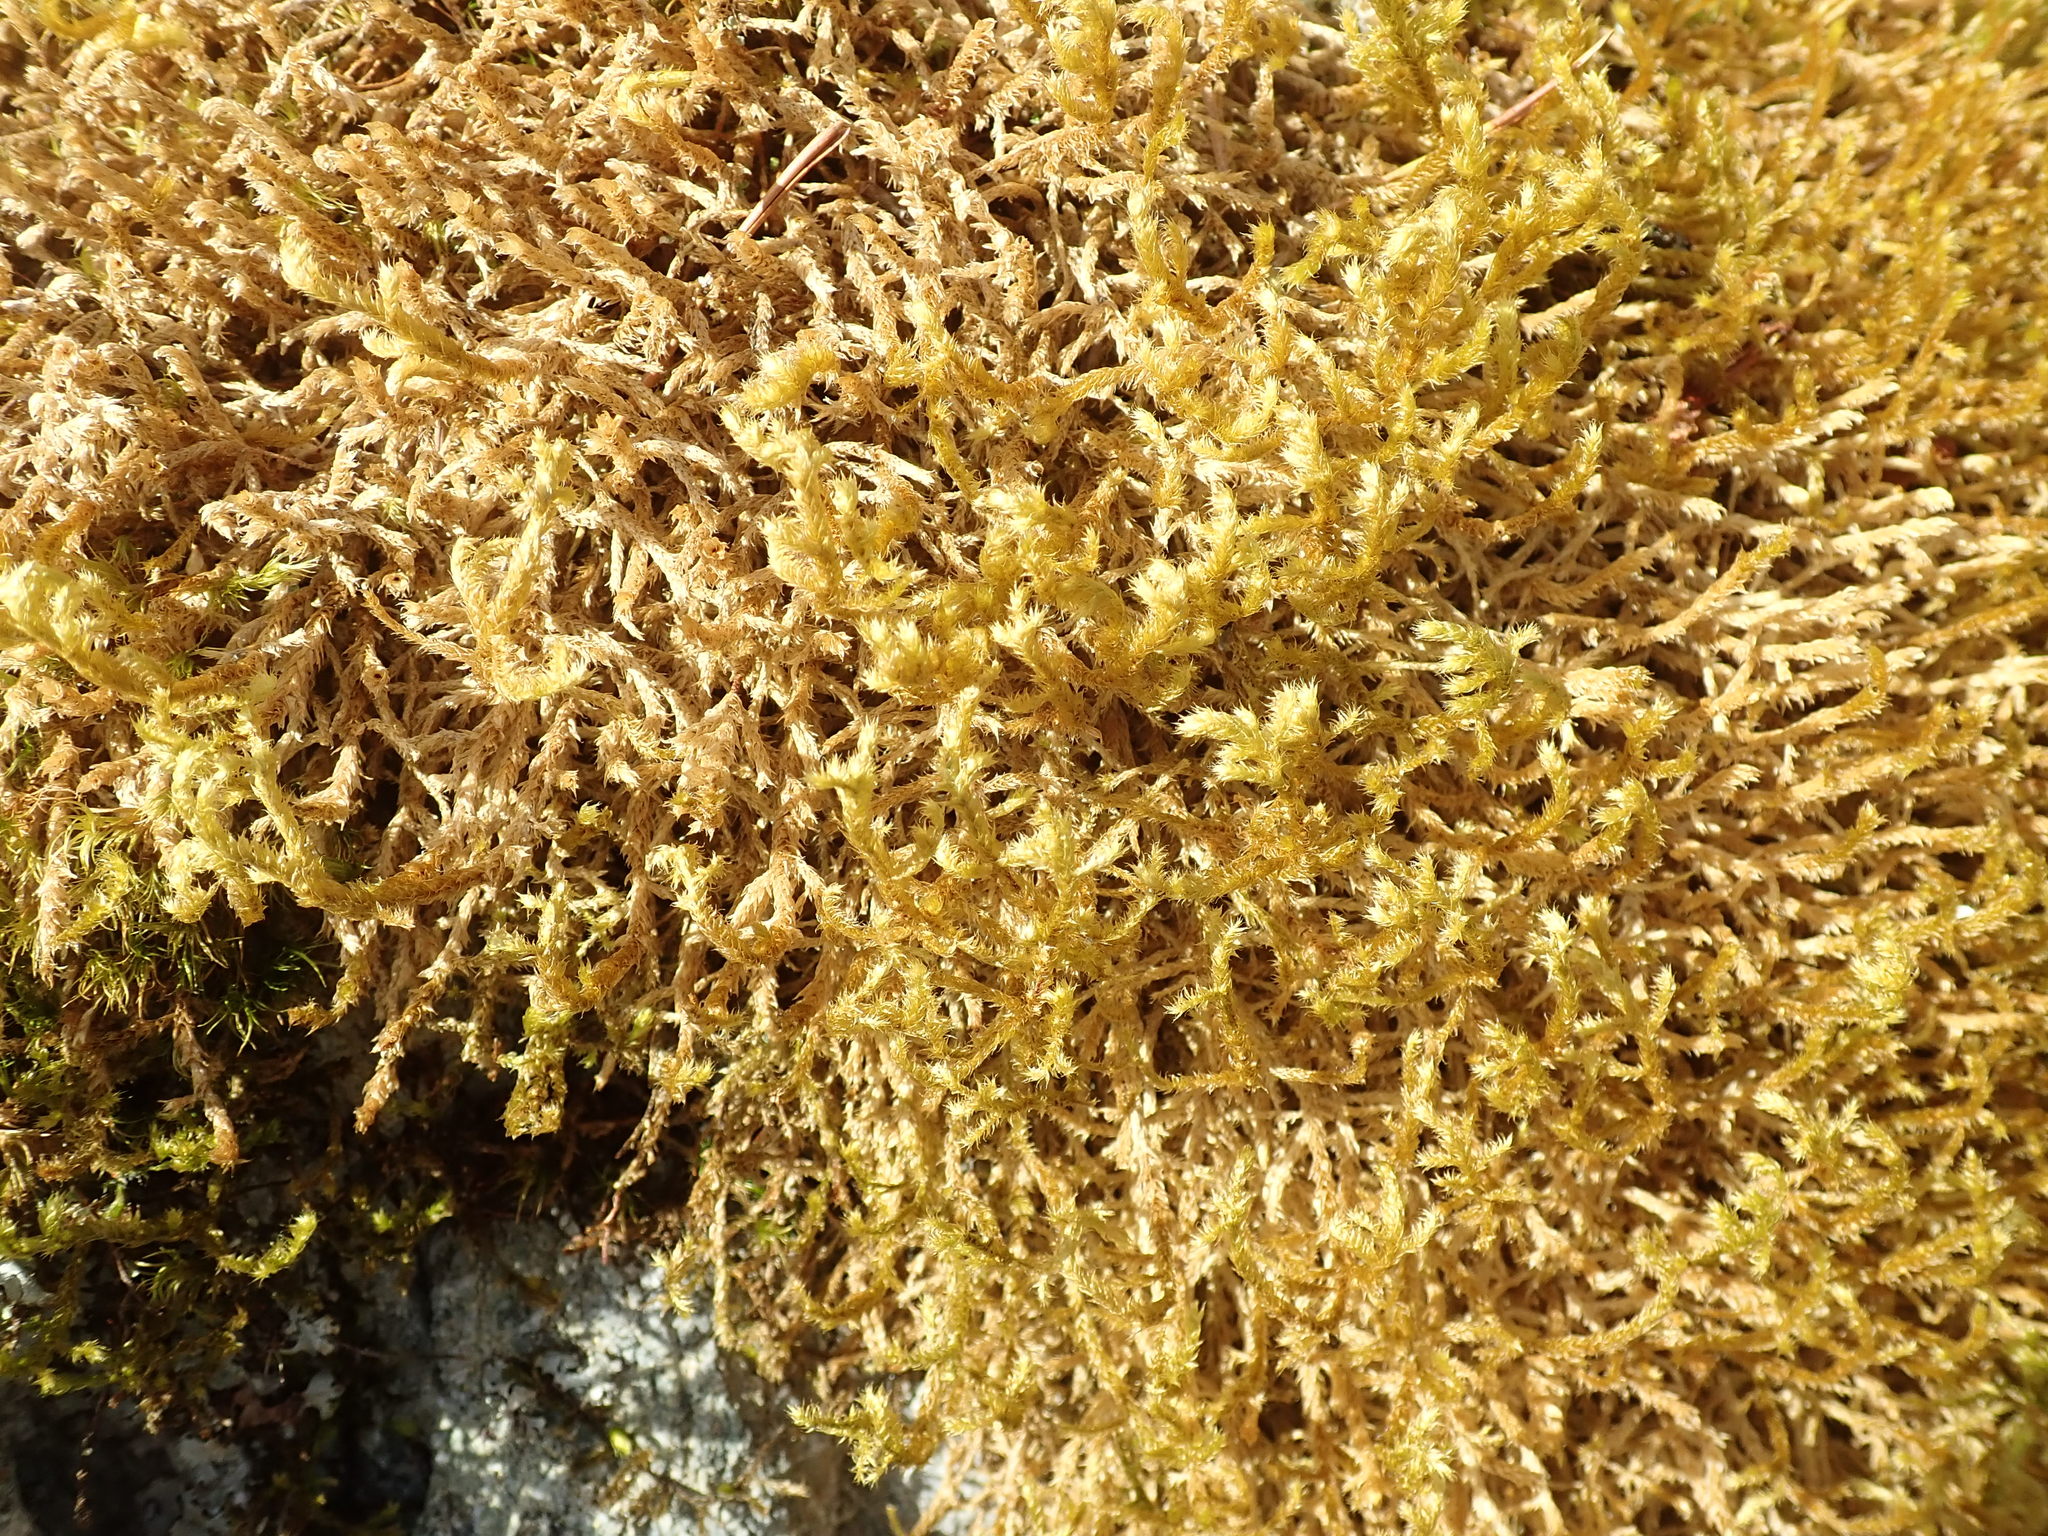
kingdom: Plantae
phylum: Bryophyta
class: Bryopsida
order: Hypnales
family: Antitrichiaceae
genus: Antitrichia
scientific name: Antitrichia curtipendula
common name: Pendulous wing-moss
